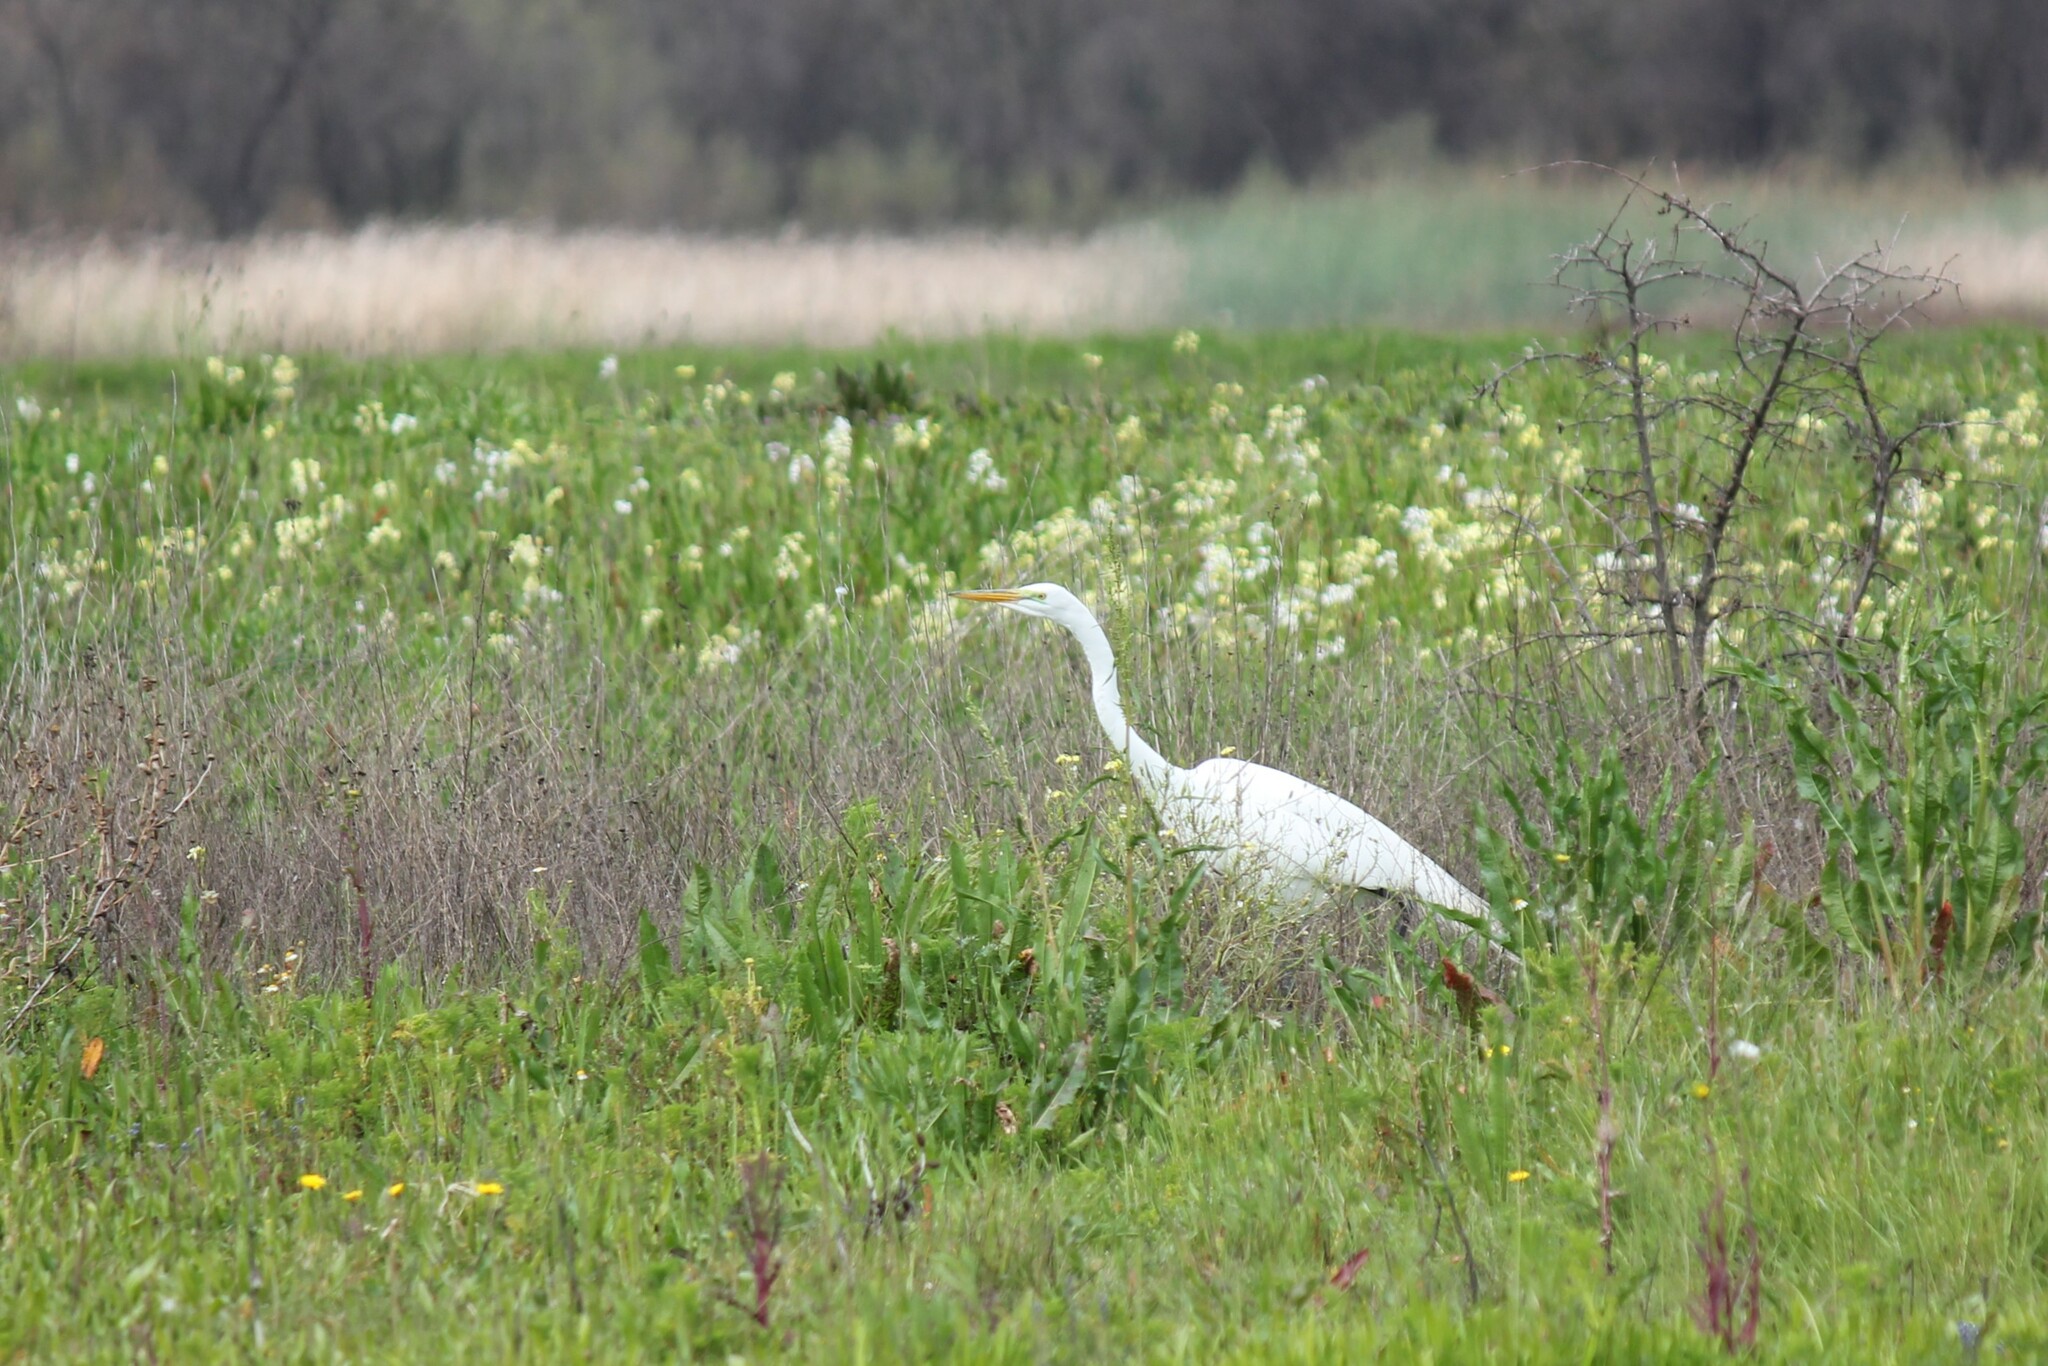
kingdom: Animalia
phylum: Chordata
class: Aves
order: Pelecaniformes
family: Ardeidae
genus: Ardea
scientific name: Ardea alba
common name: Great egret
